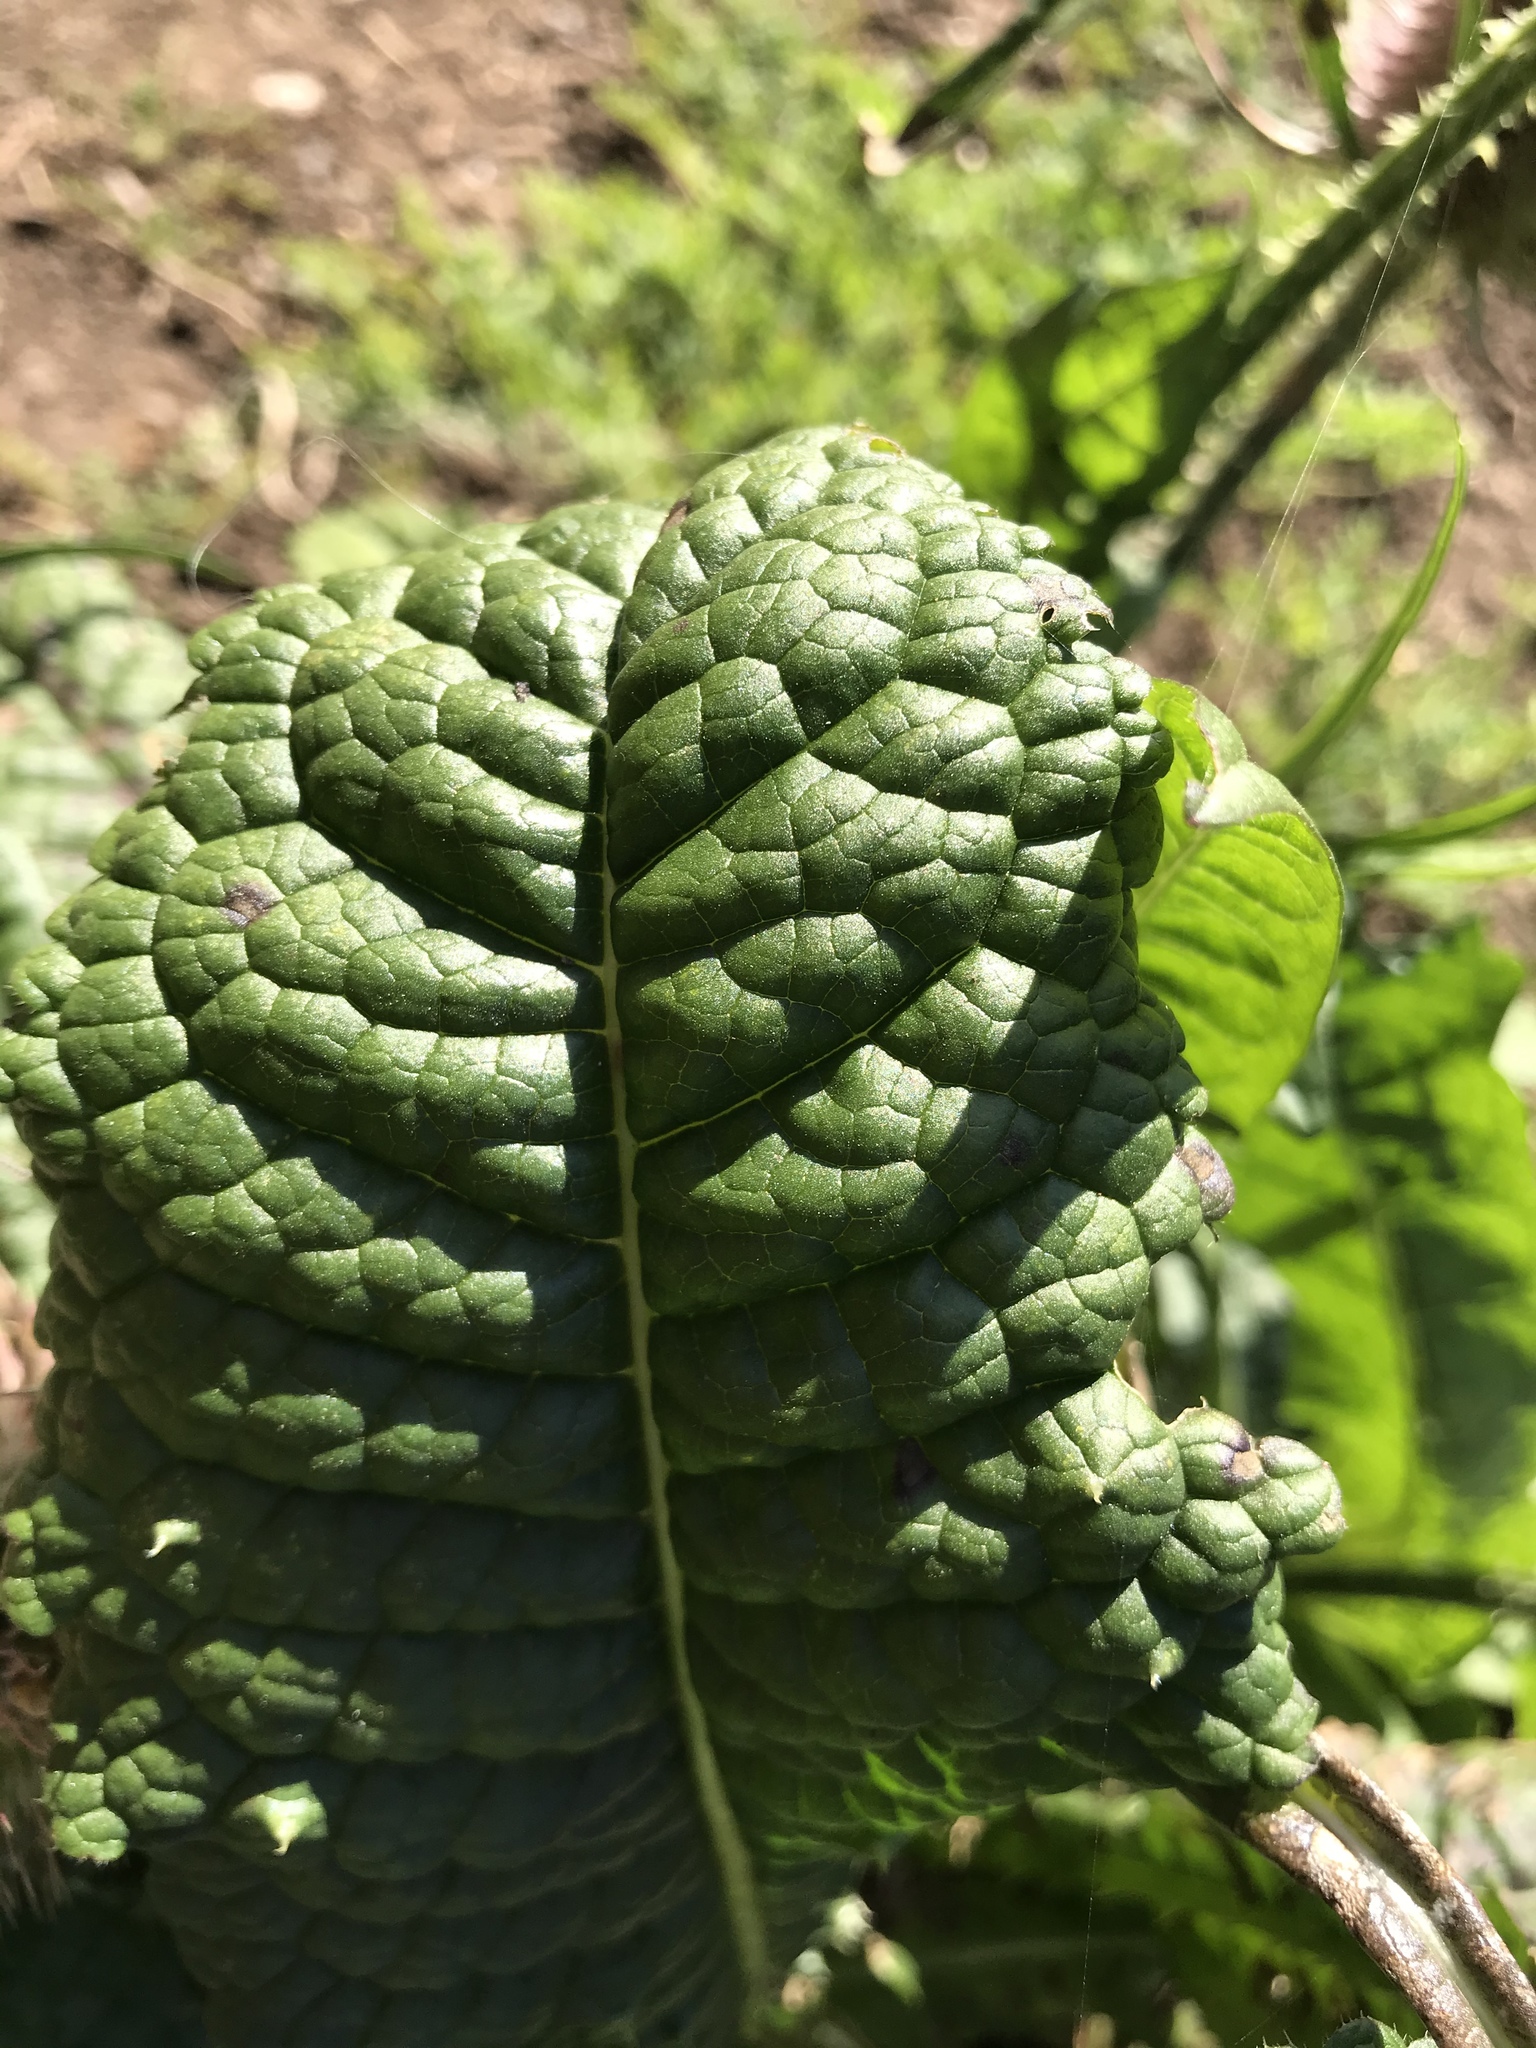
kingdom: Plantae
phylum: Tracheophyta
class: Magnoliopsida
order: Dipsacales
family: Caprifoliaceae
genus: Dipsacus
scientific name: Dipsacus fullonum
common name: Teasel
